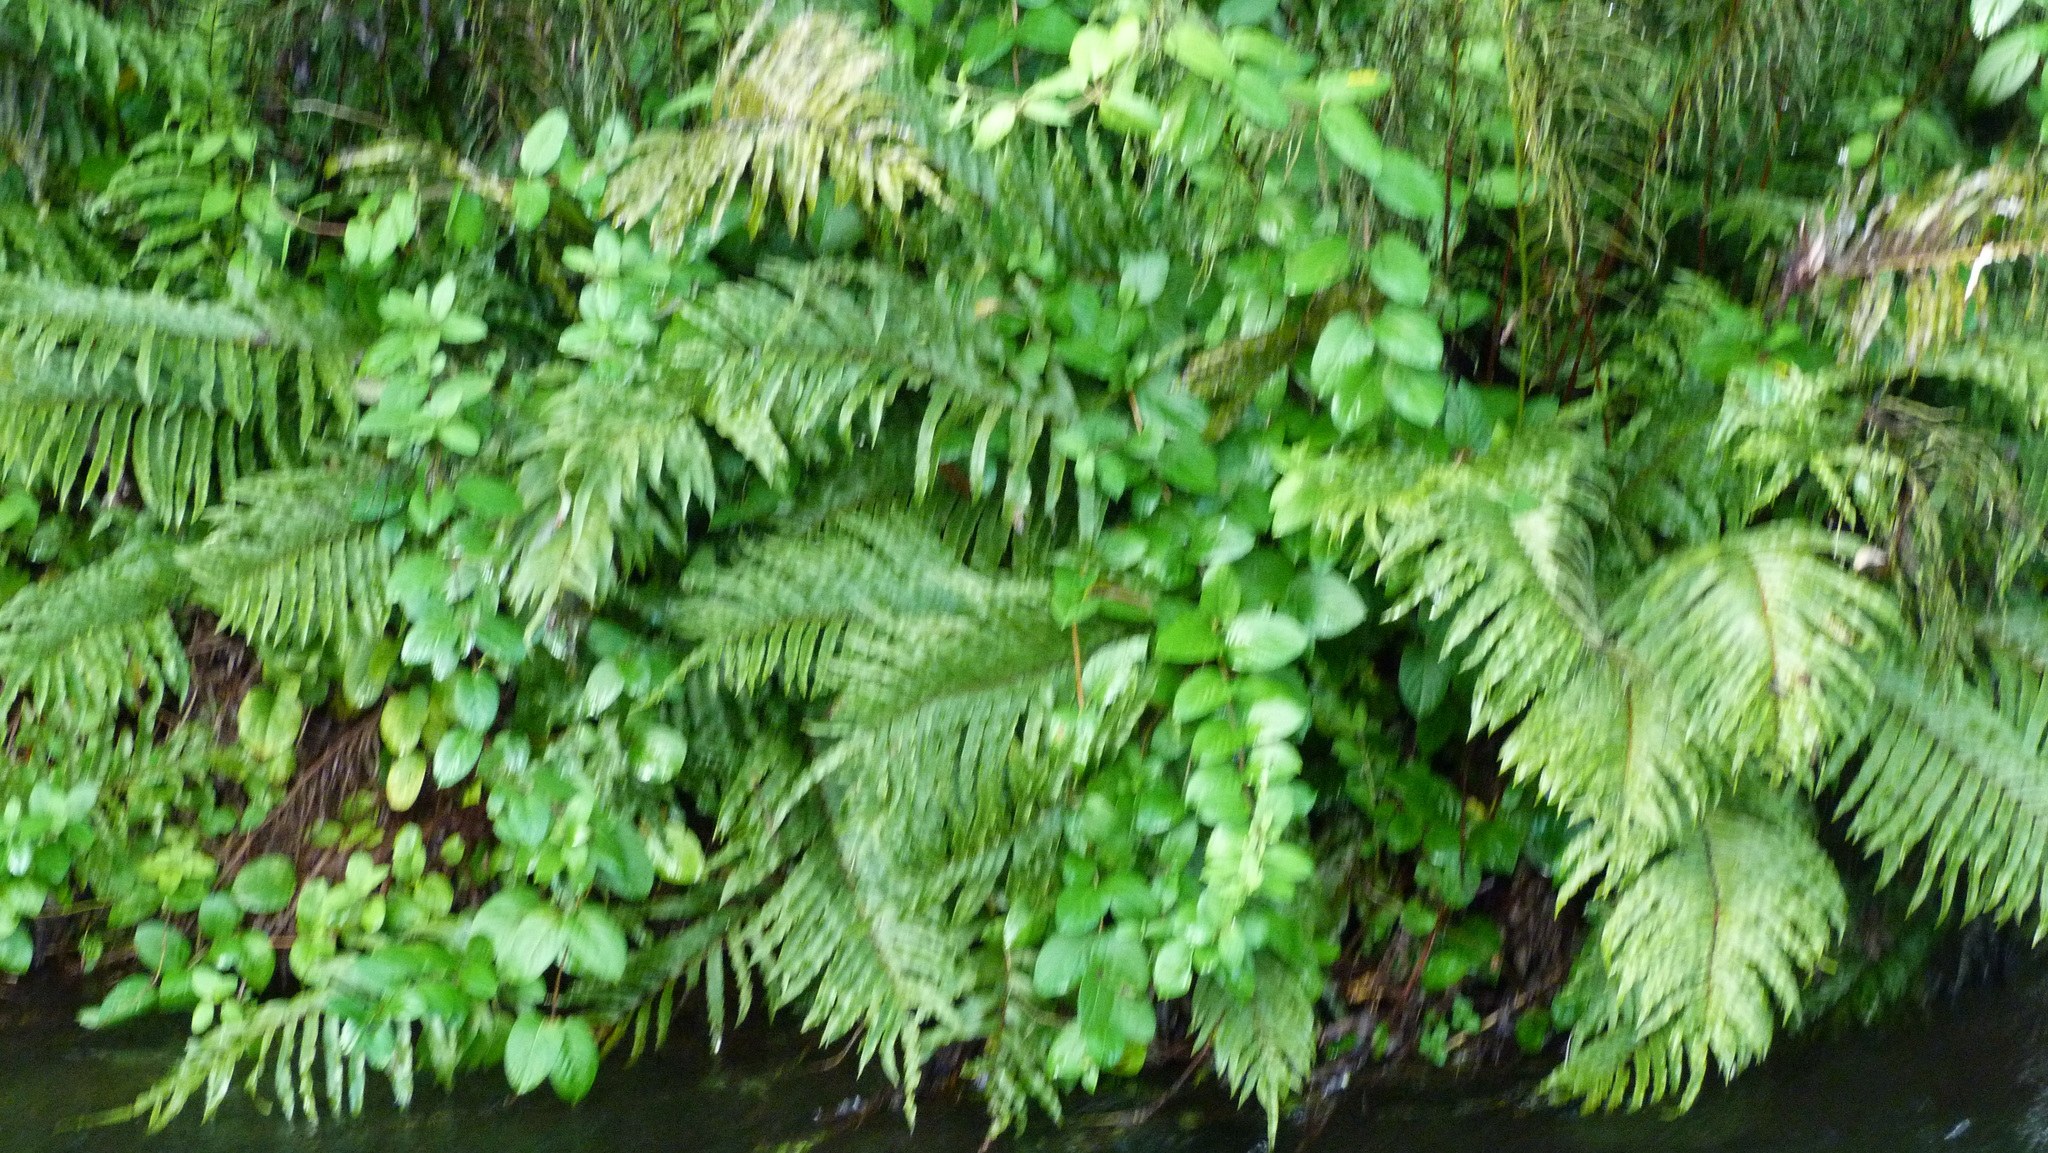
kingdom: Plantae
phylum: Tracheophyta
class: Magnoliopsida
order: Dipsacales
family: Caprifoliaceae
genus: Lonicera
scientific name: Lonicera japonica
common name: Japanese honeysuckle
